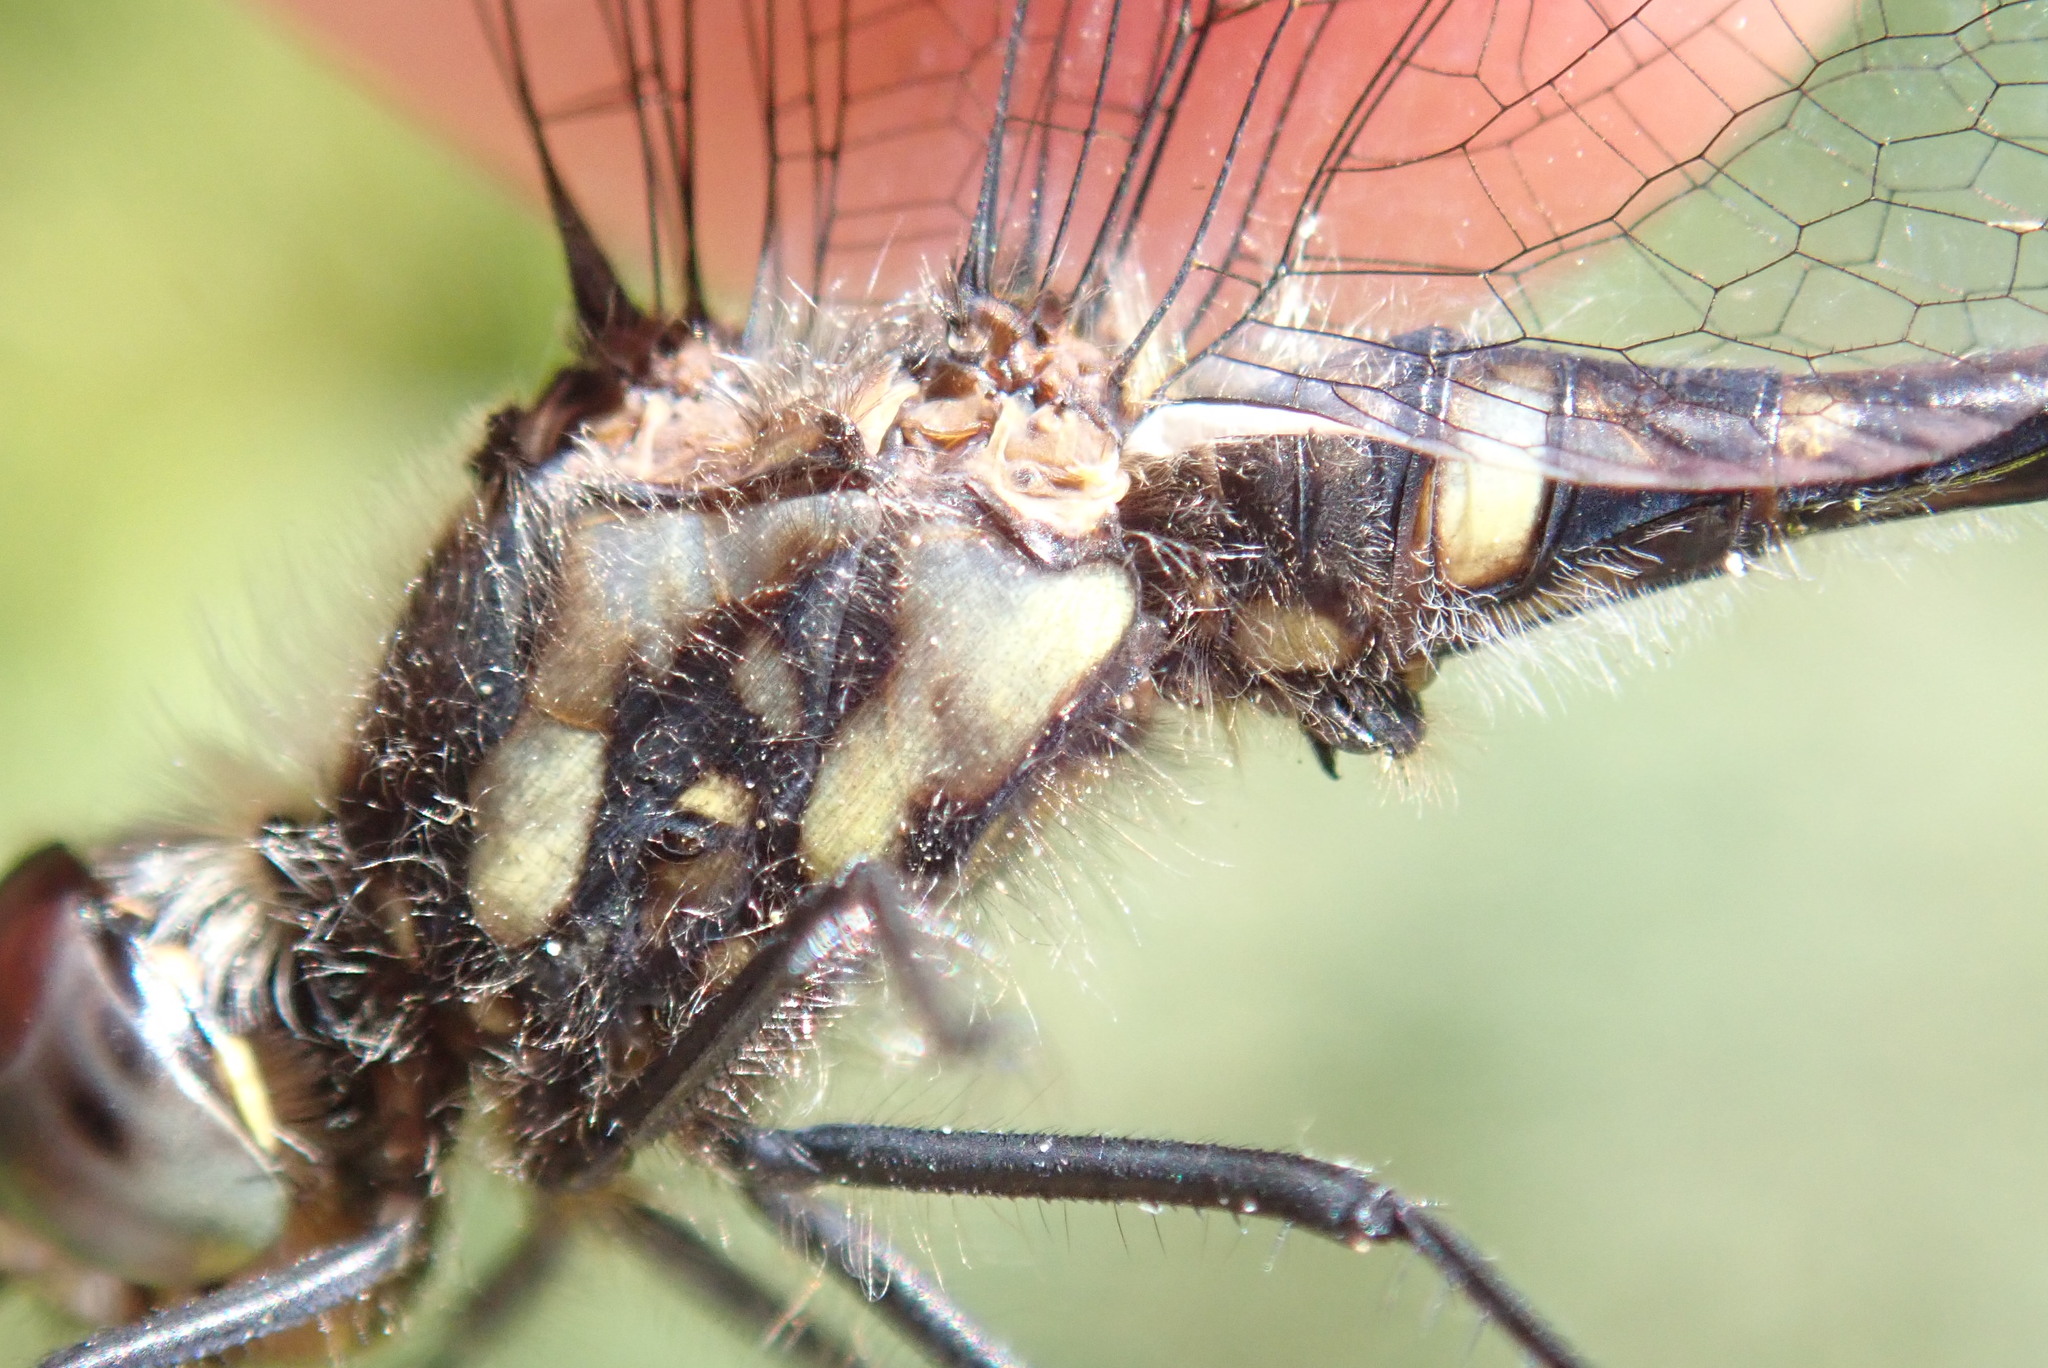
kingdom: Animalia
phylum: Arthropoda
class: Insecta
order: Odonata
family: Libellulidae
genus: Sympetrum
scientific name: Sympetrum danae
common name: Black darter
